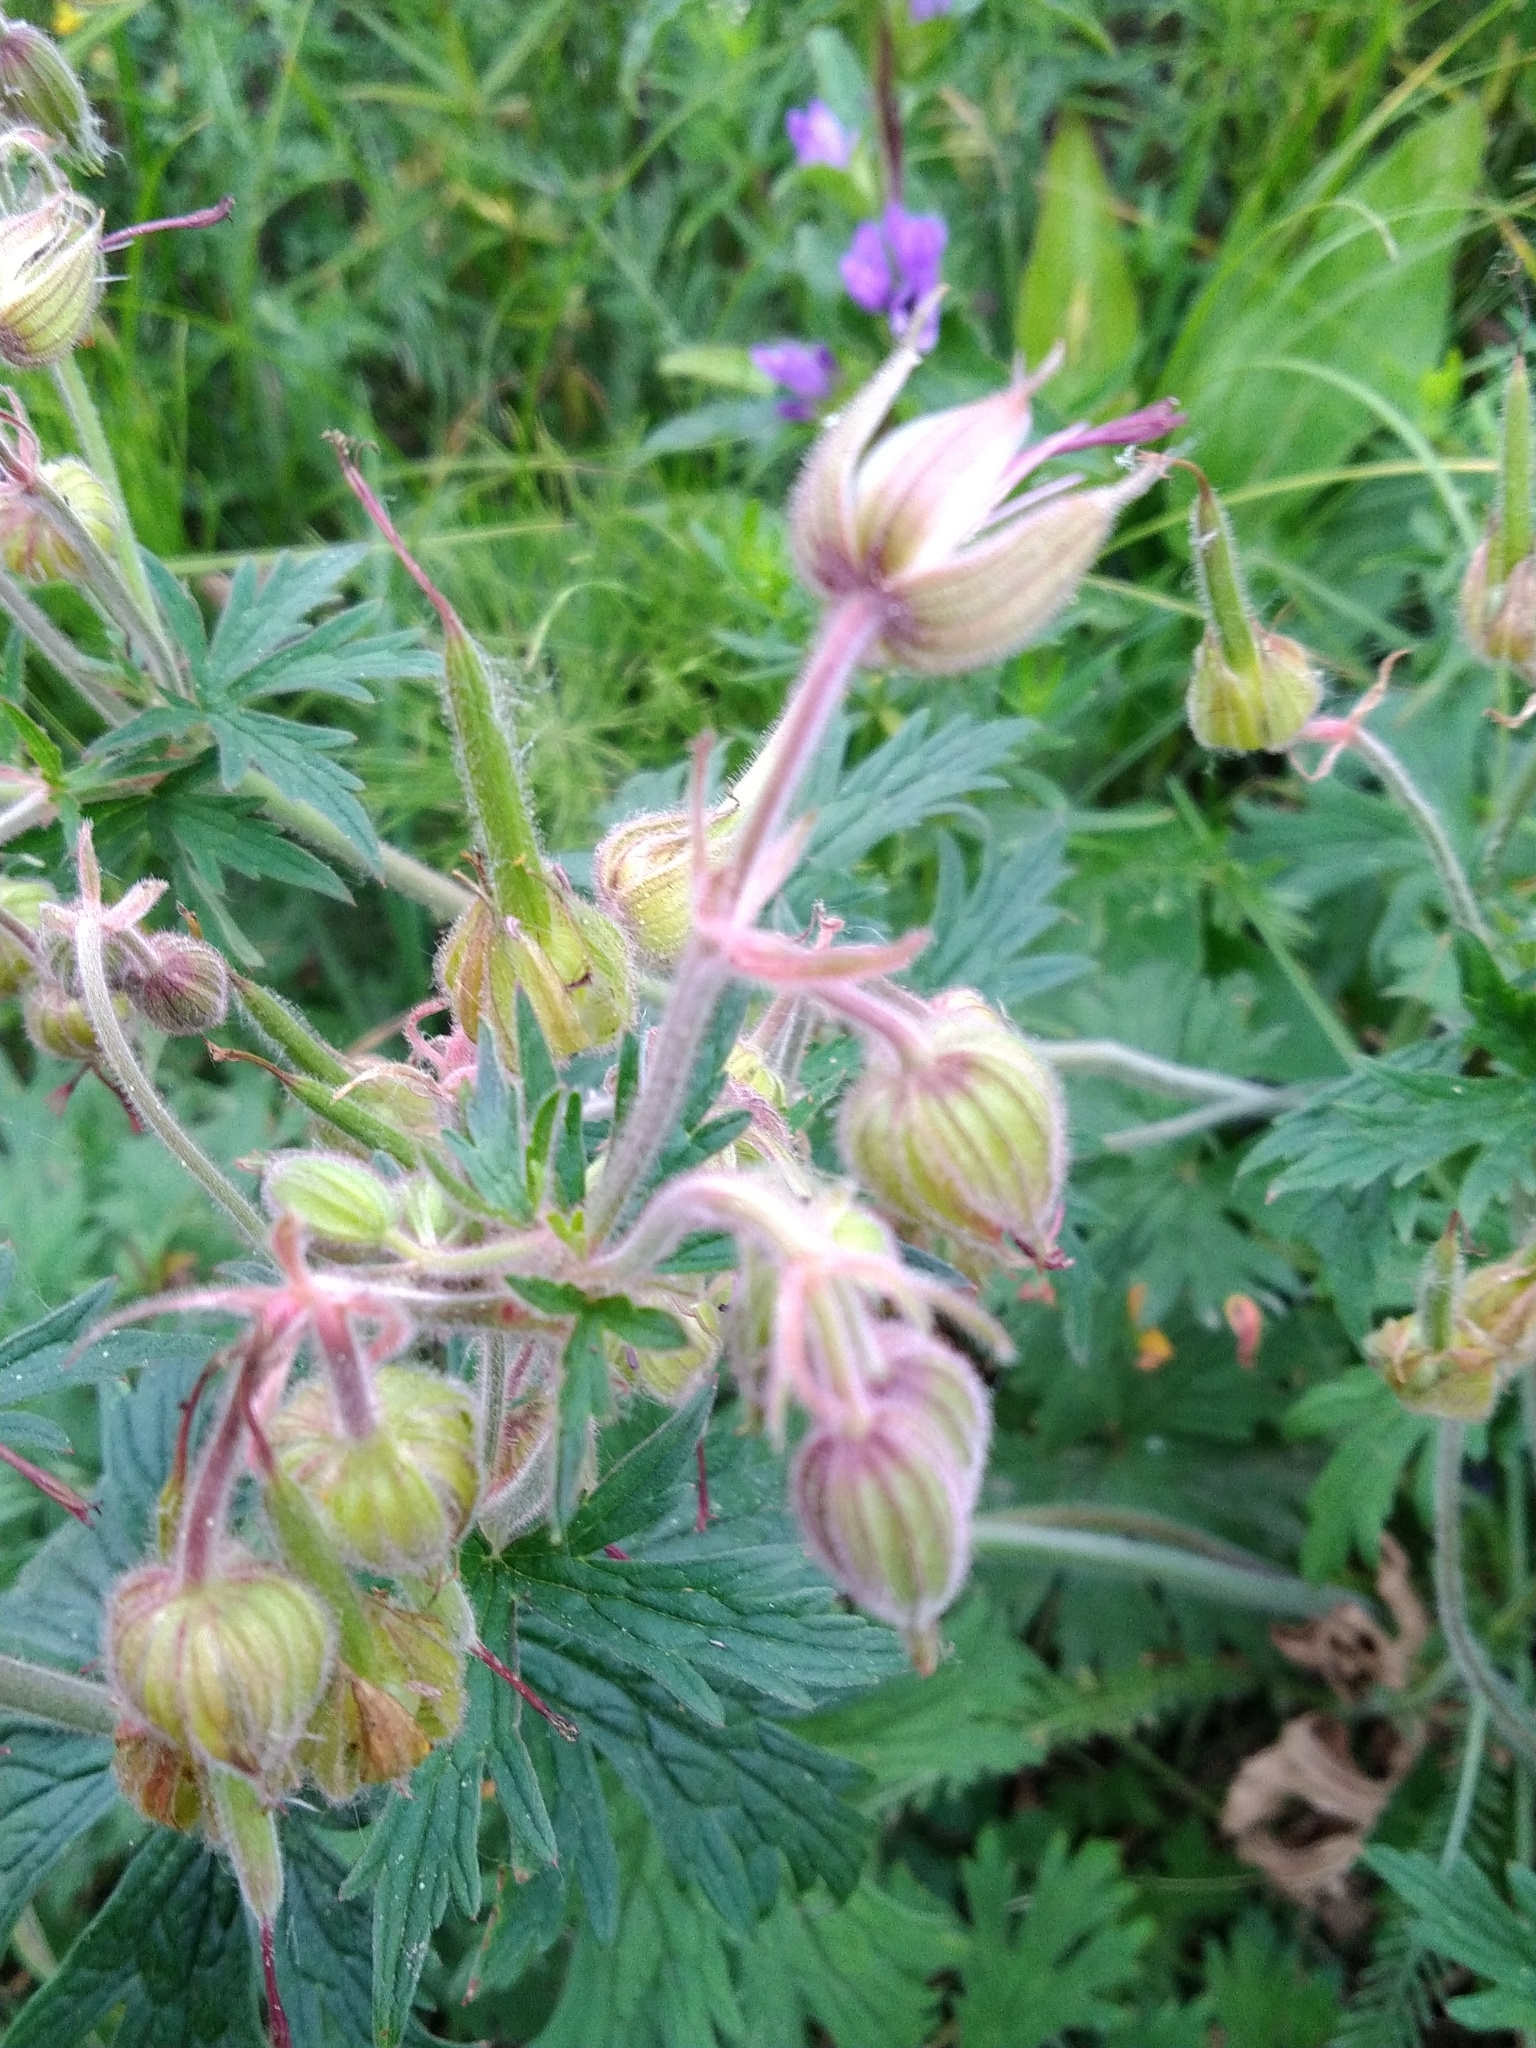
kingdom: Plantae
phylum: Tracheophyta
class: Magnoliopsida
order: Geraniales
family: Geraniaceae
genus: Geranium
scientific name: Geranium pratense
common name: Meadow crane's-bill
